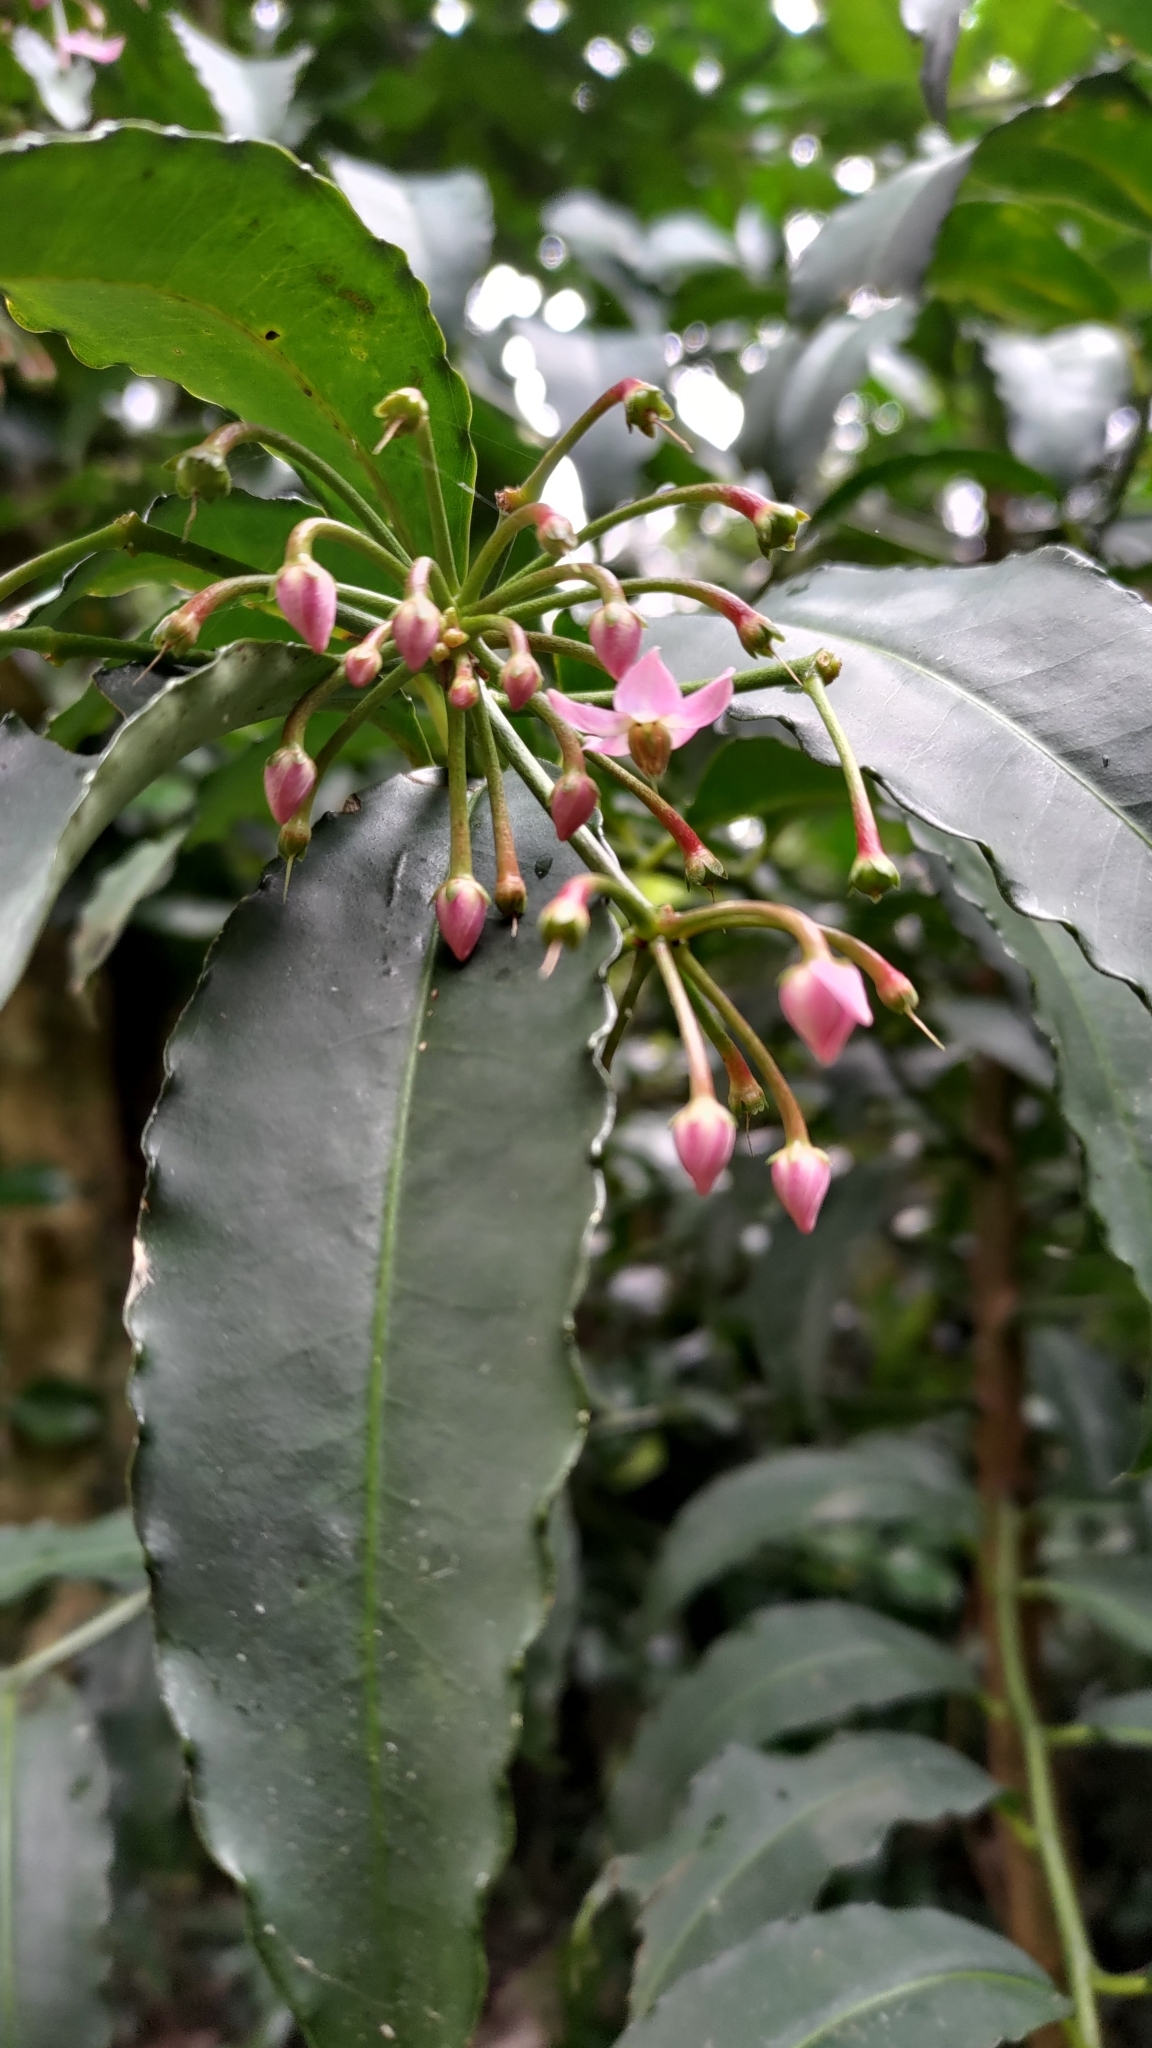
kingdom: Plantae
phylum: Tracheophyta
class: Magnoliopsida
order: Ericales
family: Primulaceae
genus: Ardisia
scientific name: Ardisia polysticta
